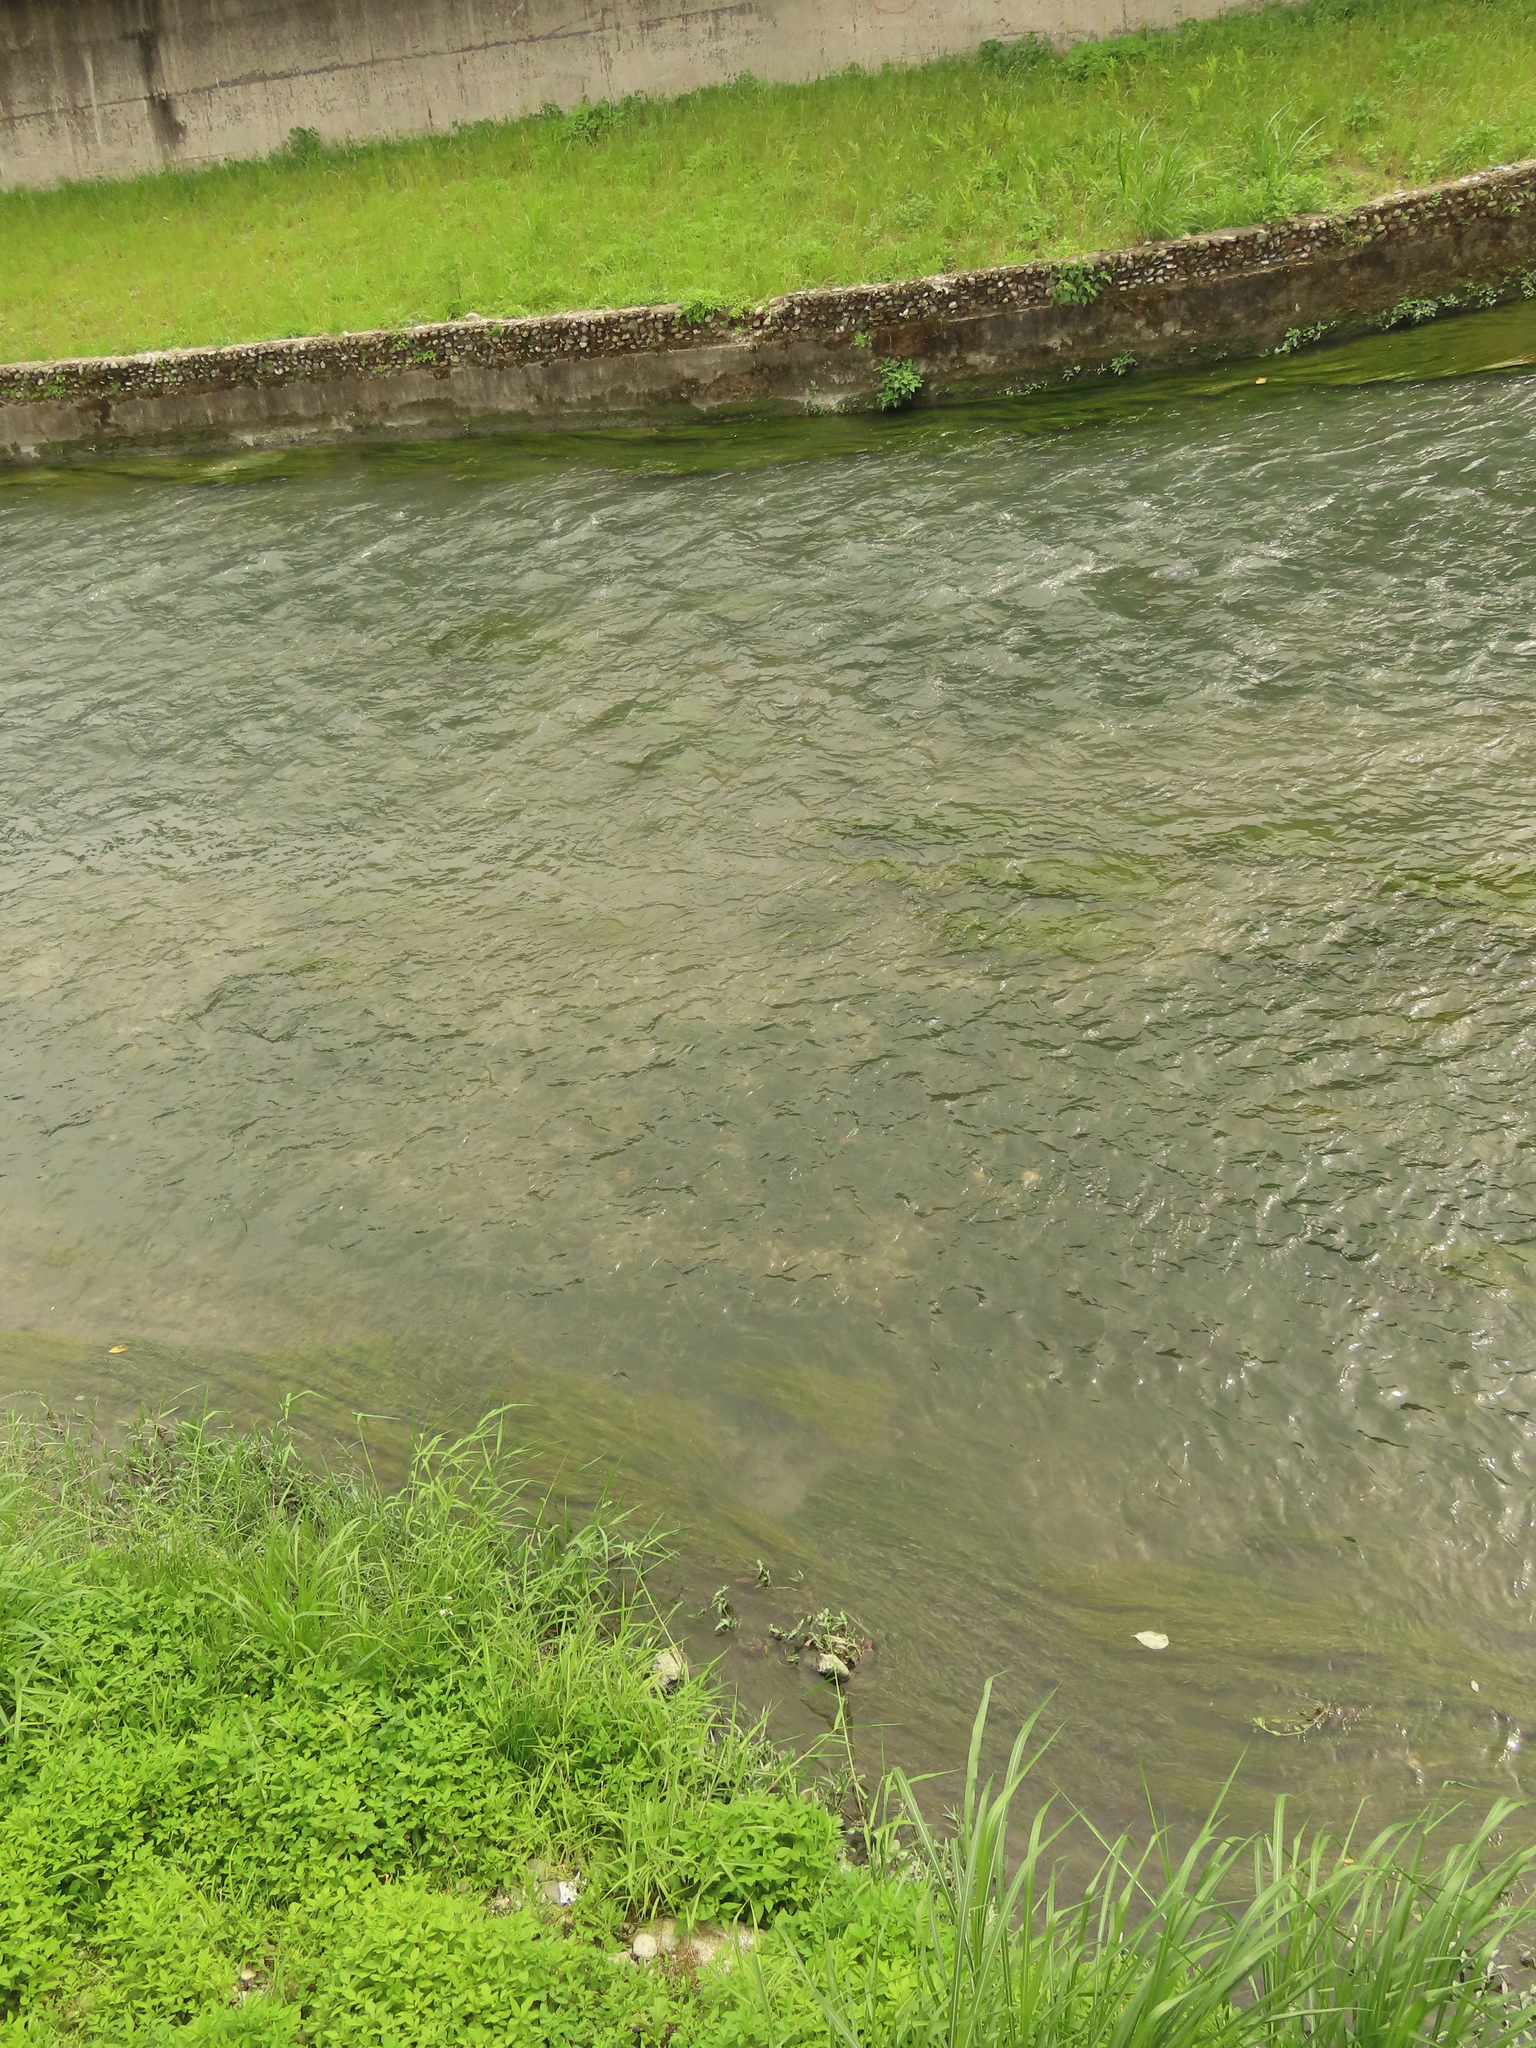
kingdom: Plantae
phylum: Tracheophyta
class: Liliopsida
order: Alismatales
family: Potamogetonaceae
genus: Stuckenia
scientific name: Stuckenia pectinata
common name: Sago pondweed
